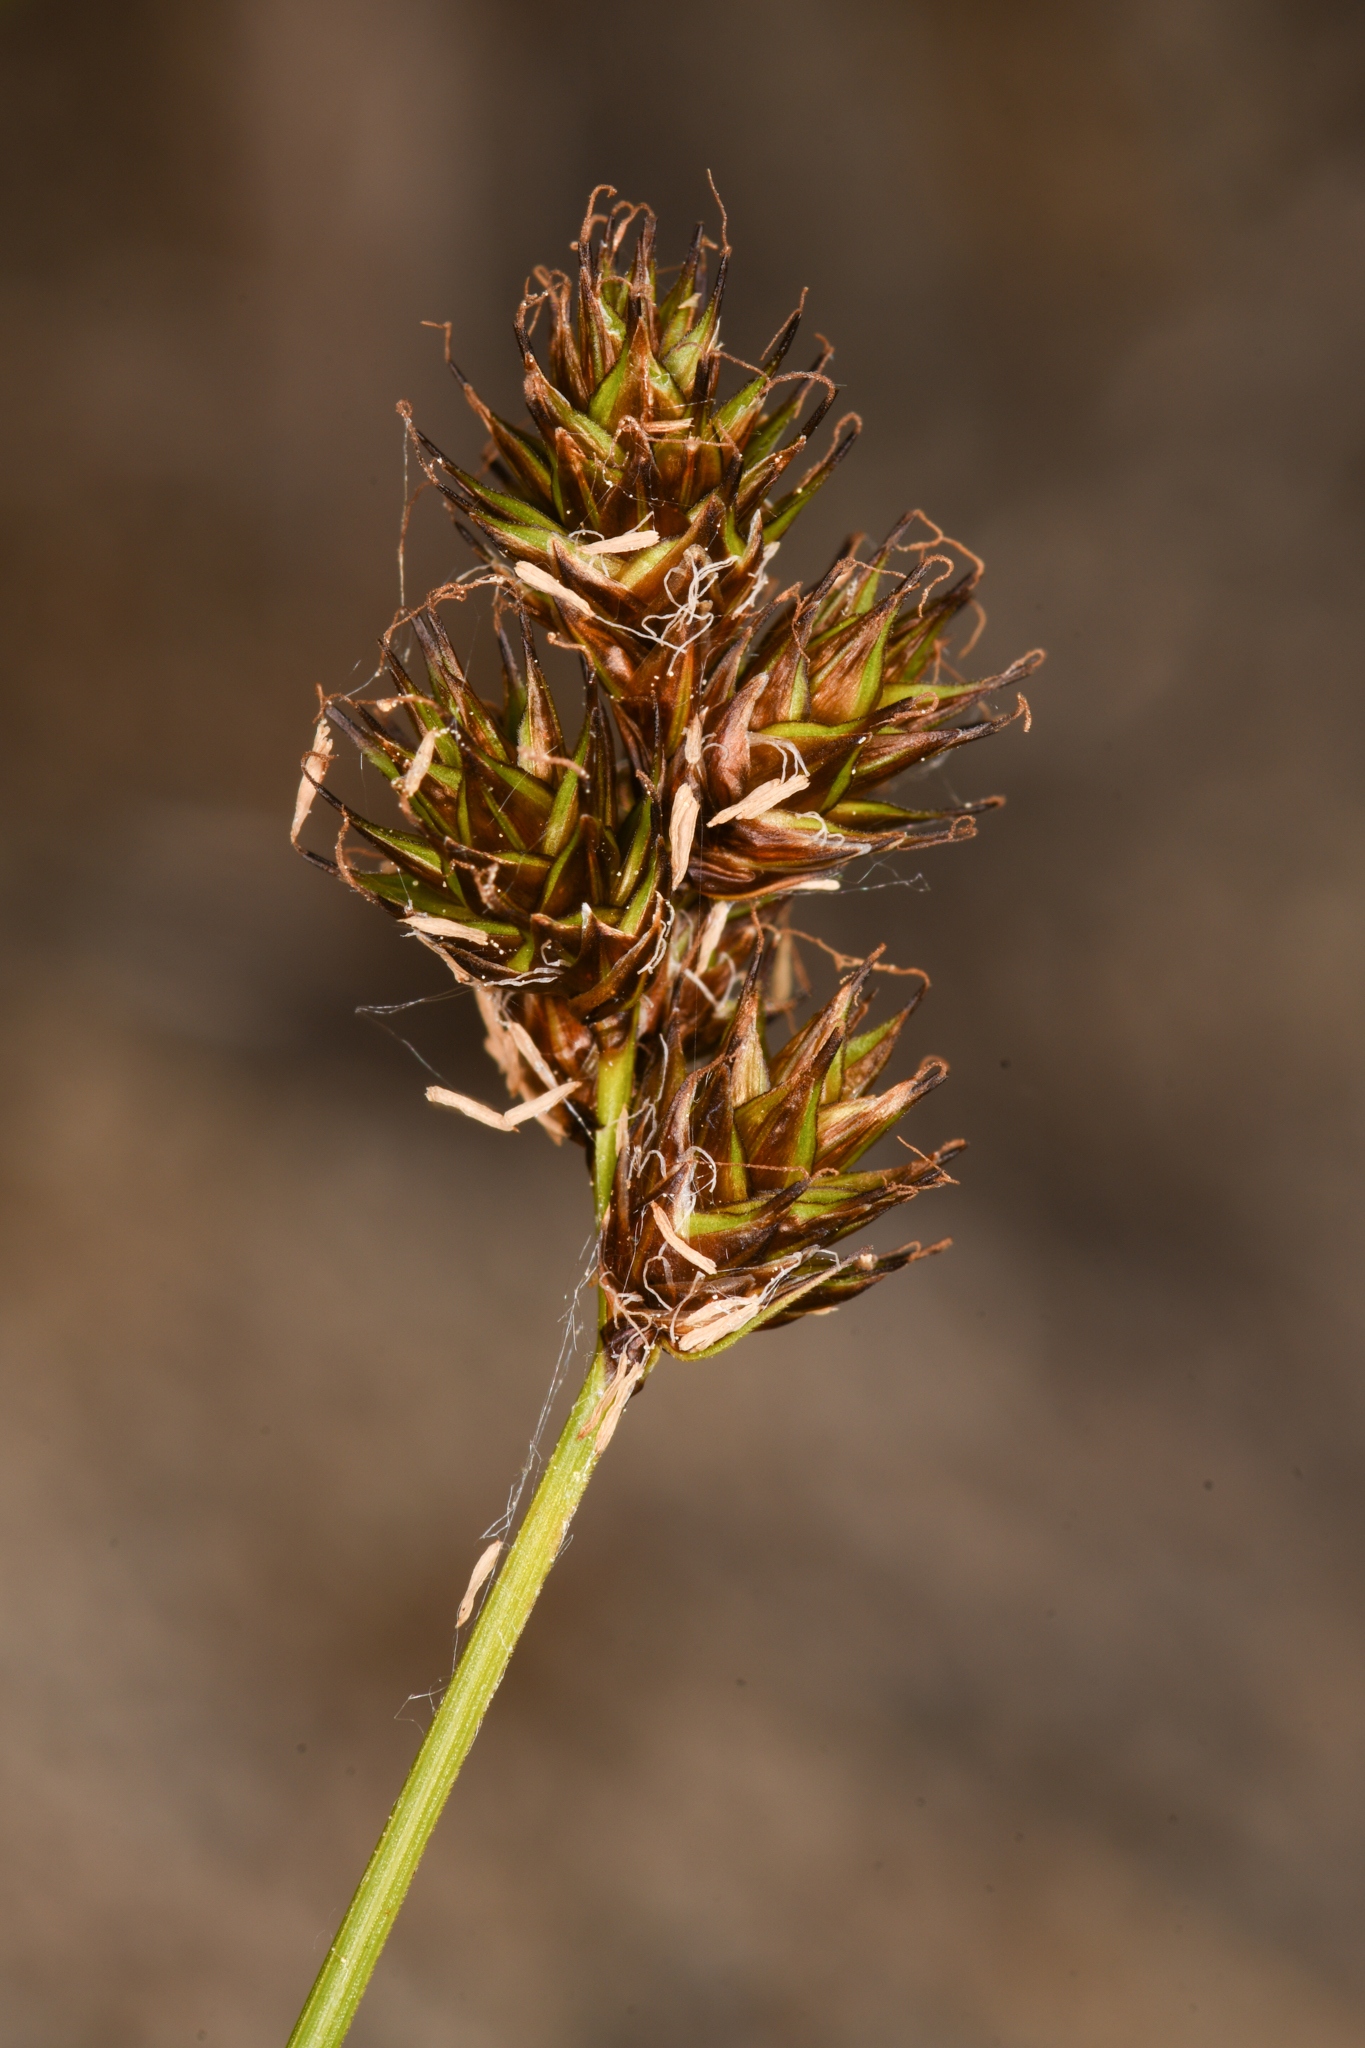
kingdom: Plantae
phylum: Tracheophyta
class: Liliopsida
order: Poales
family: Cyperaceae
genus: Carex
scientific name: Carex pachystachya
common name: Chamisso's sedge
